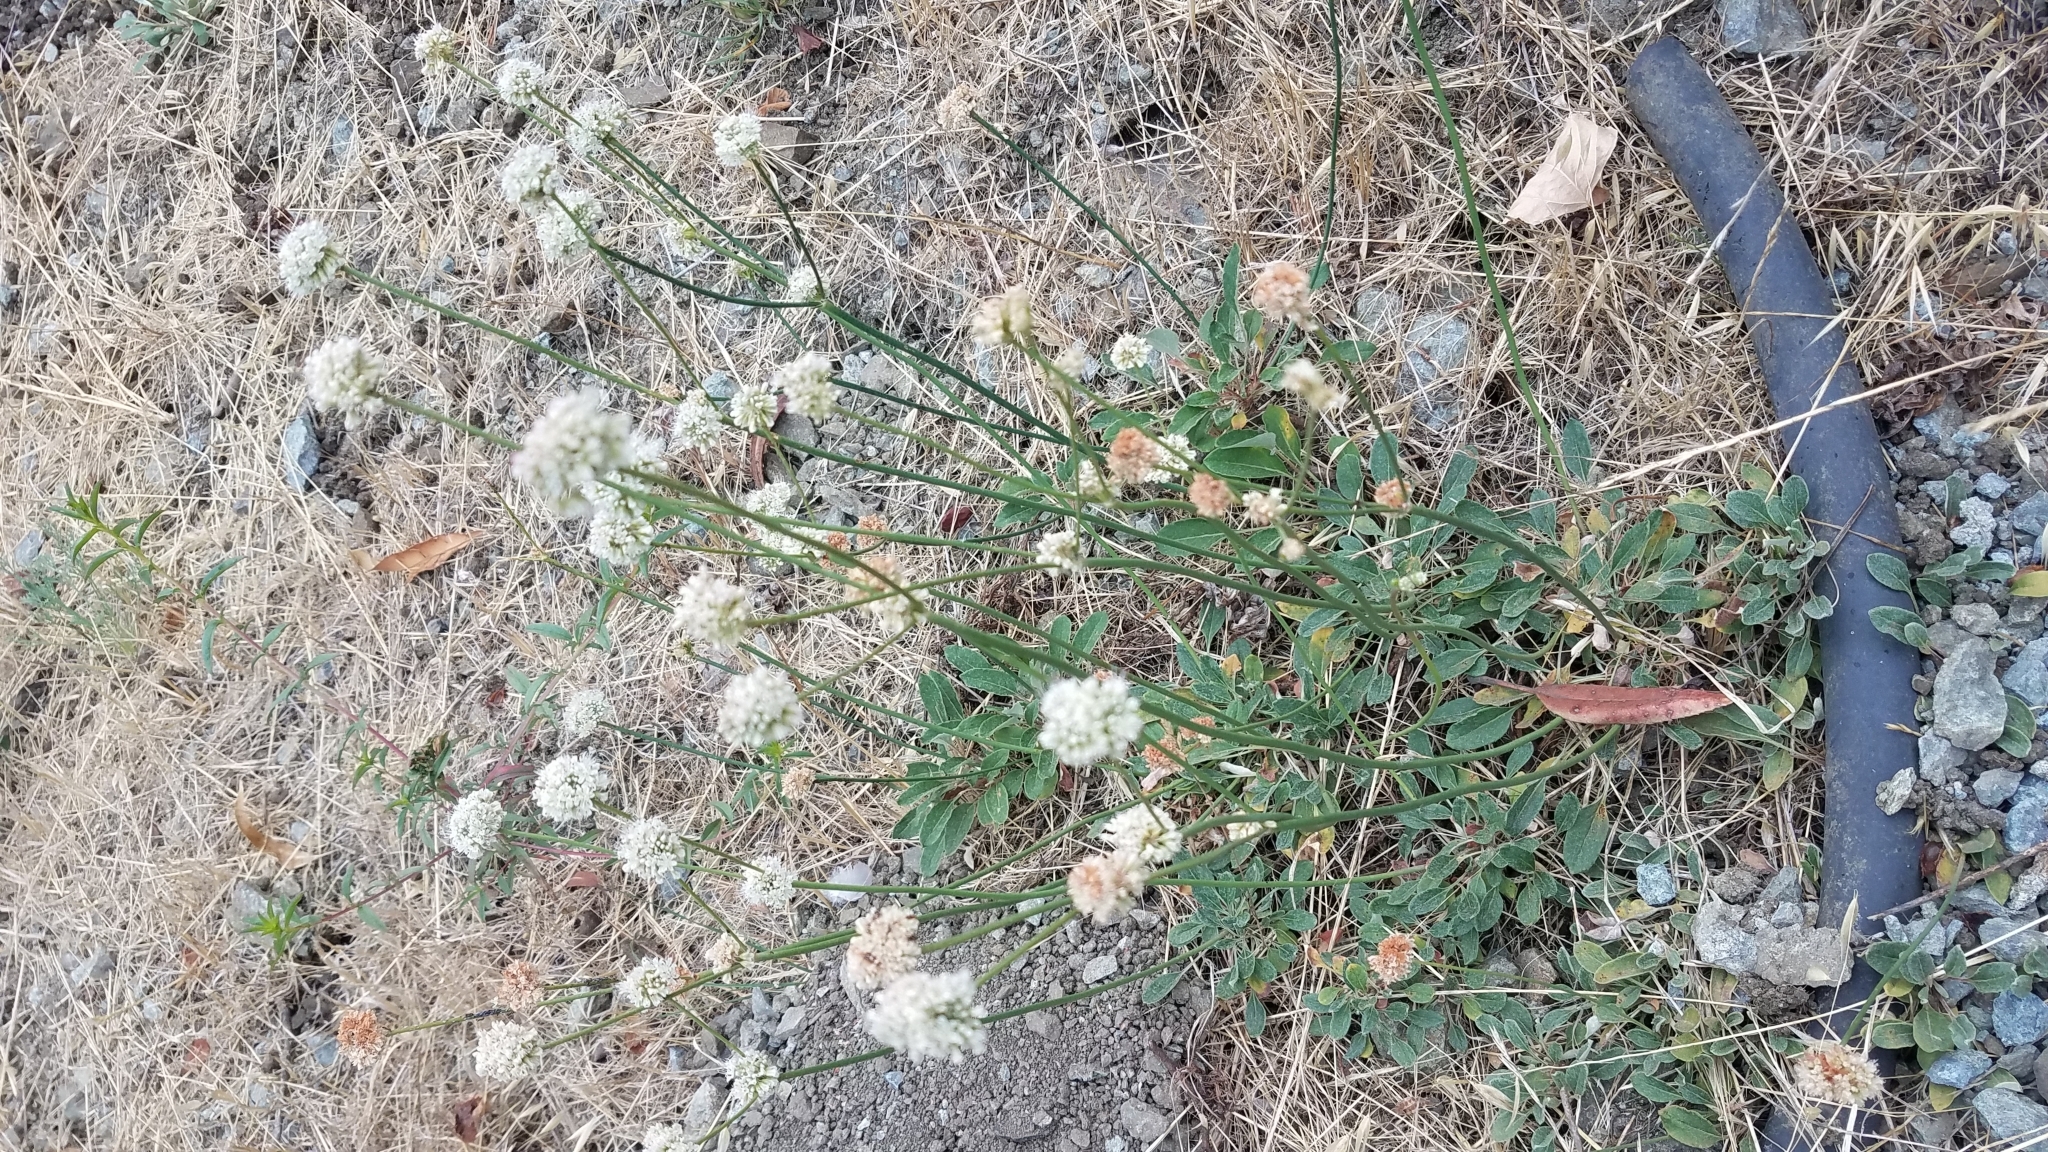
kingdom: Plantae
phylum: Tracheophyta
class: Magnoliopsida
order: Caryophyllales
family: Polygonaceae
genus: Eriogonum
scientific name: Eriogonum nudum
